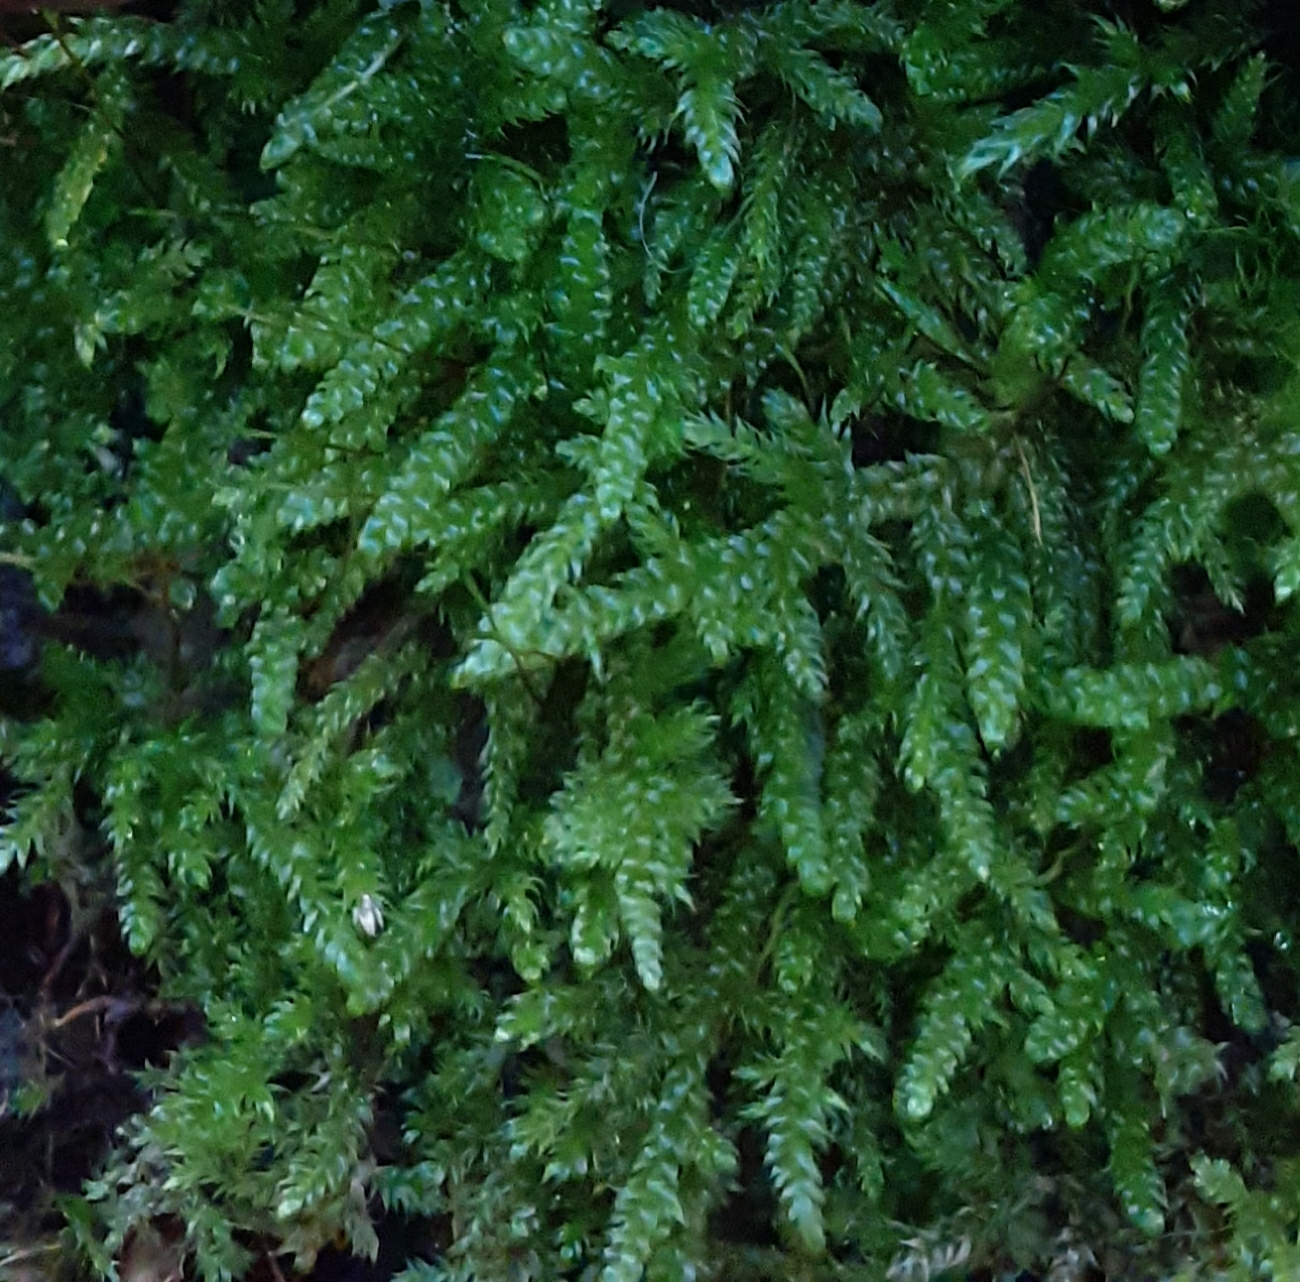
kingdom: Plantae
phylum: Bryophyta
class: Bryopsida
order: Hypnales
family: Hypnaceae
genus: Hypnum
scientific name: Hypnum cupressiforme
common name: Cypress-leaved plait-moss
